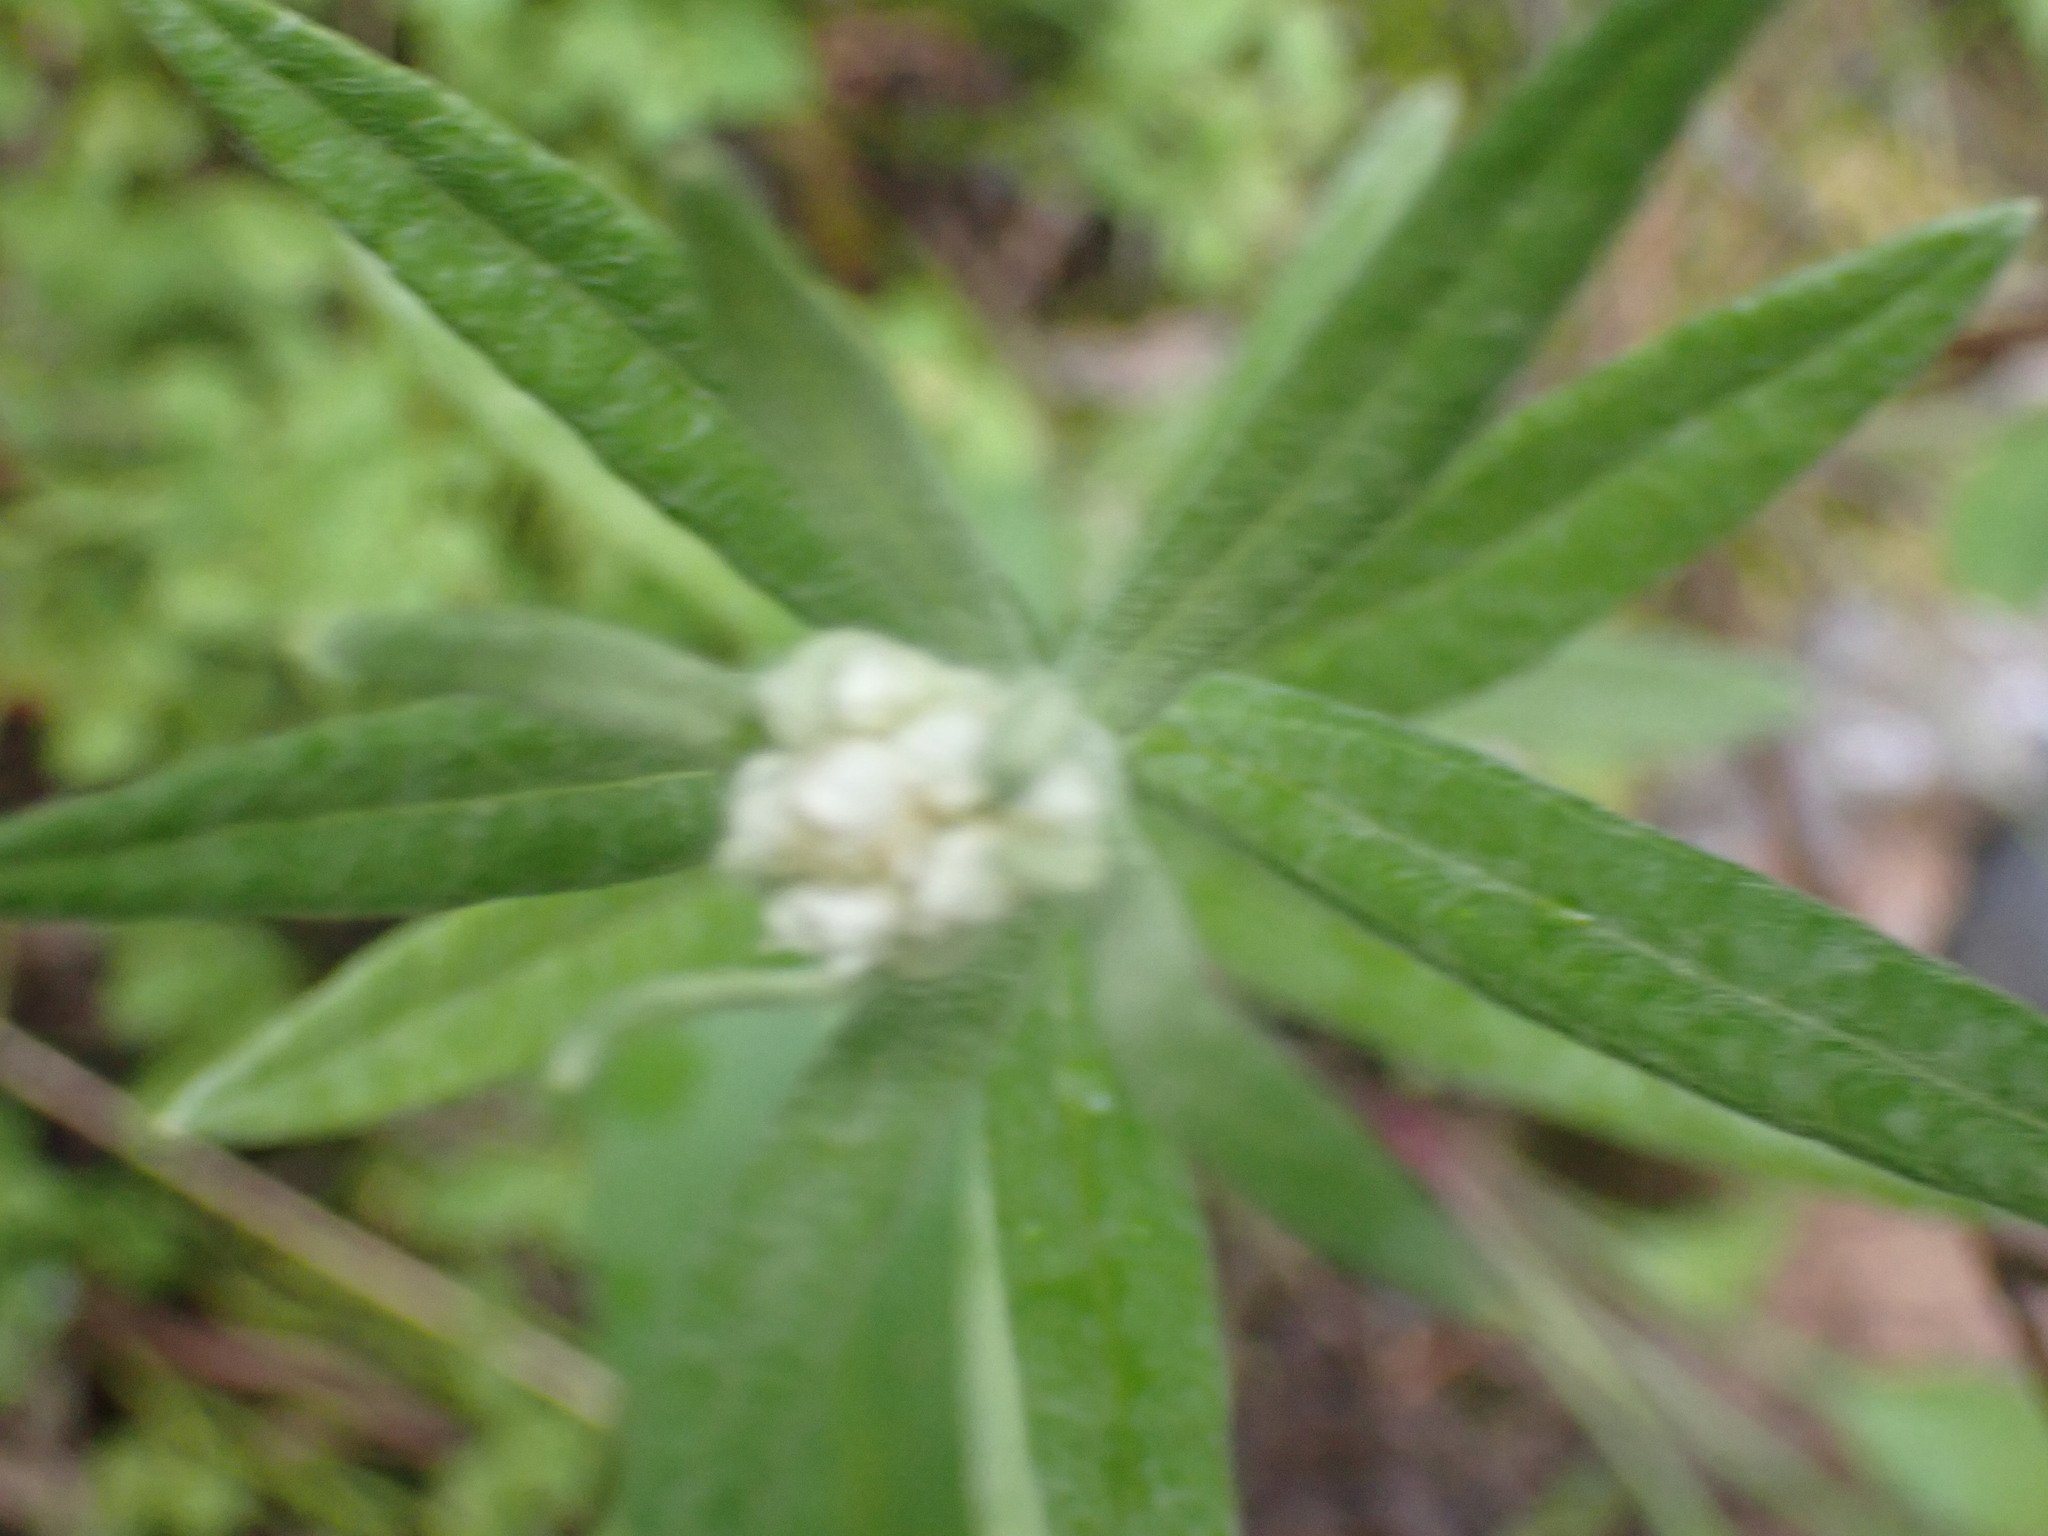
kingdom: Plantae
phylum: Tracheophyta
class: Magnoliopsida
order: Asterales
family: Asteraceae
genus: Anaphalis
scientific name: Anaphalis margaritacea
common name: Pearly everlasting
